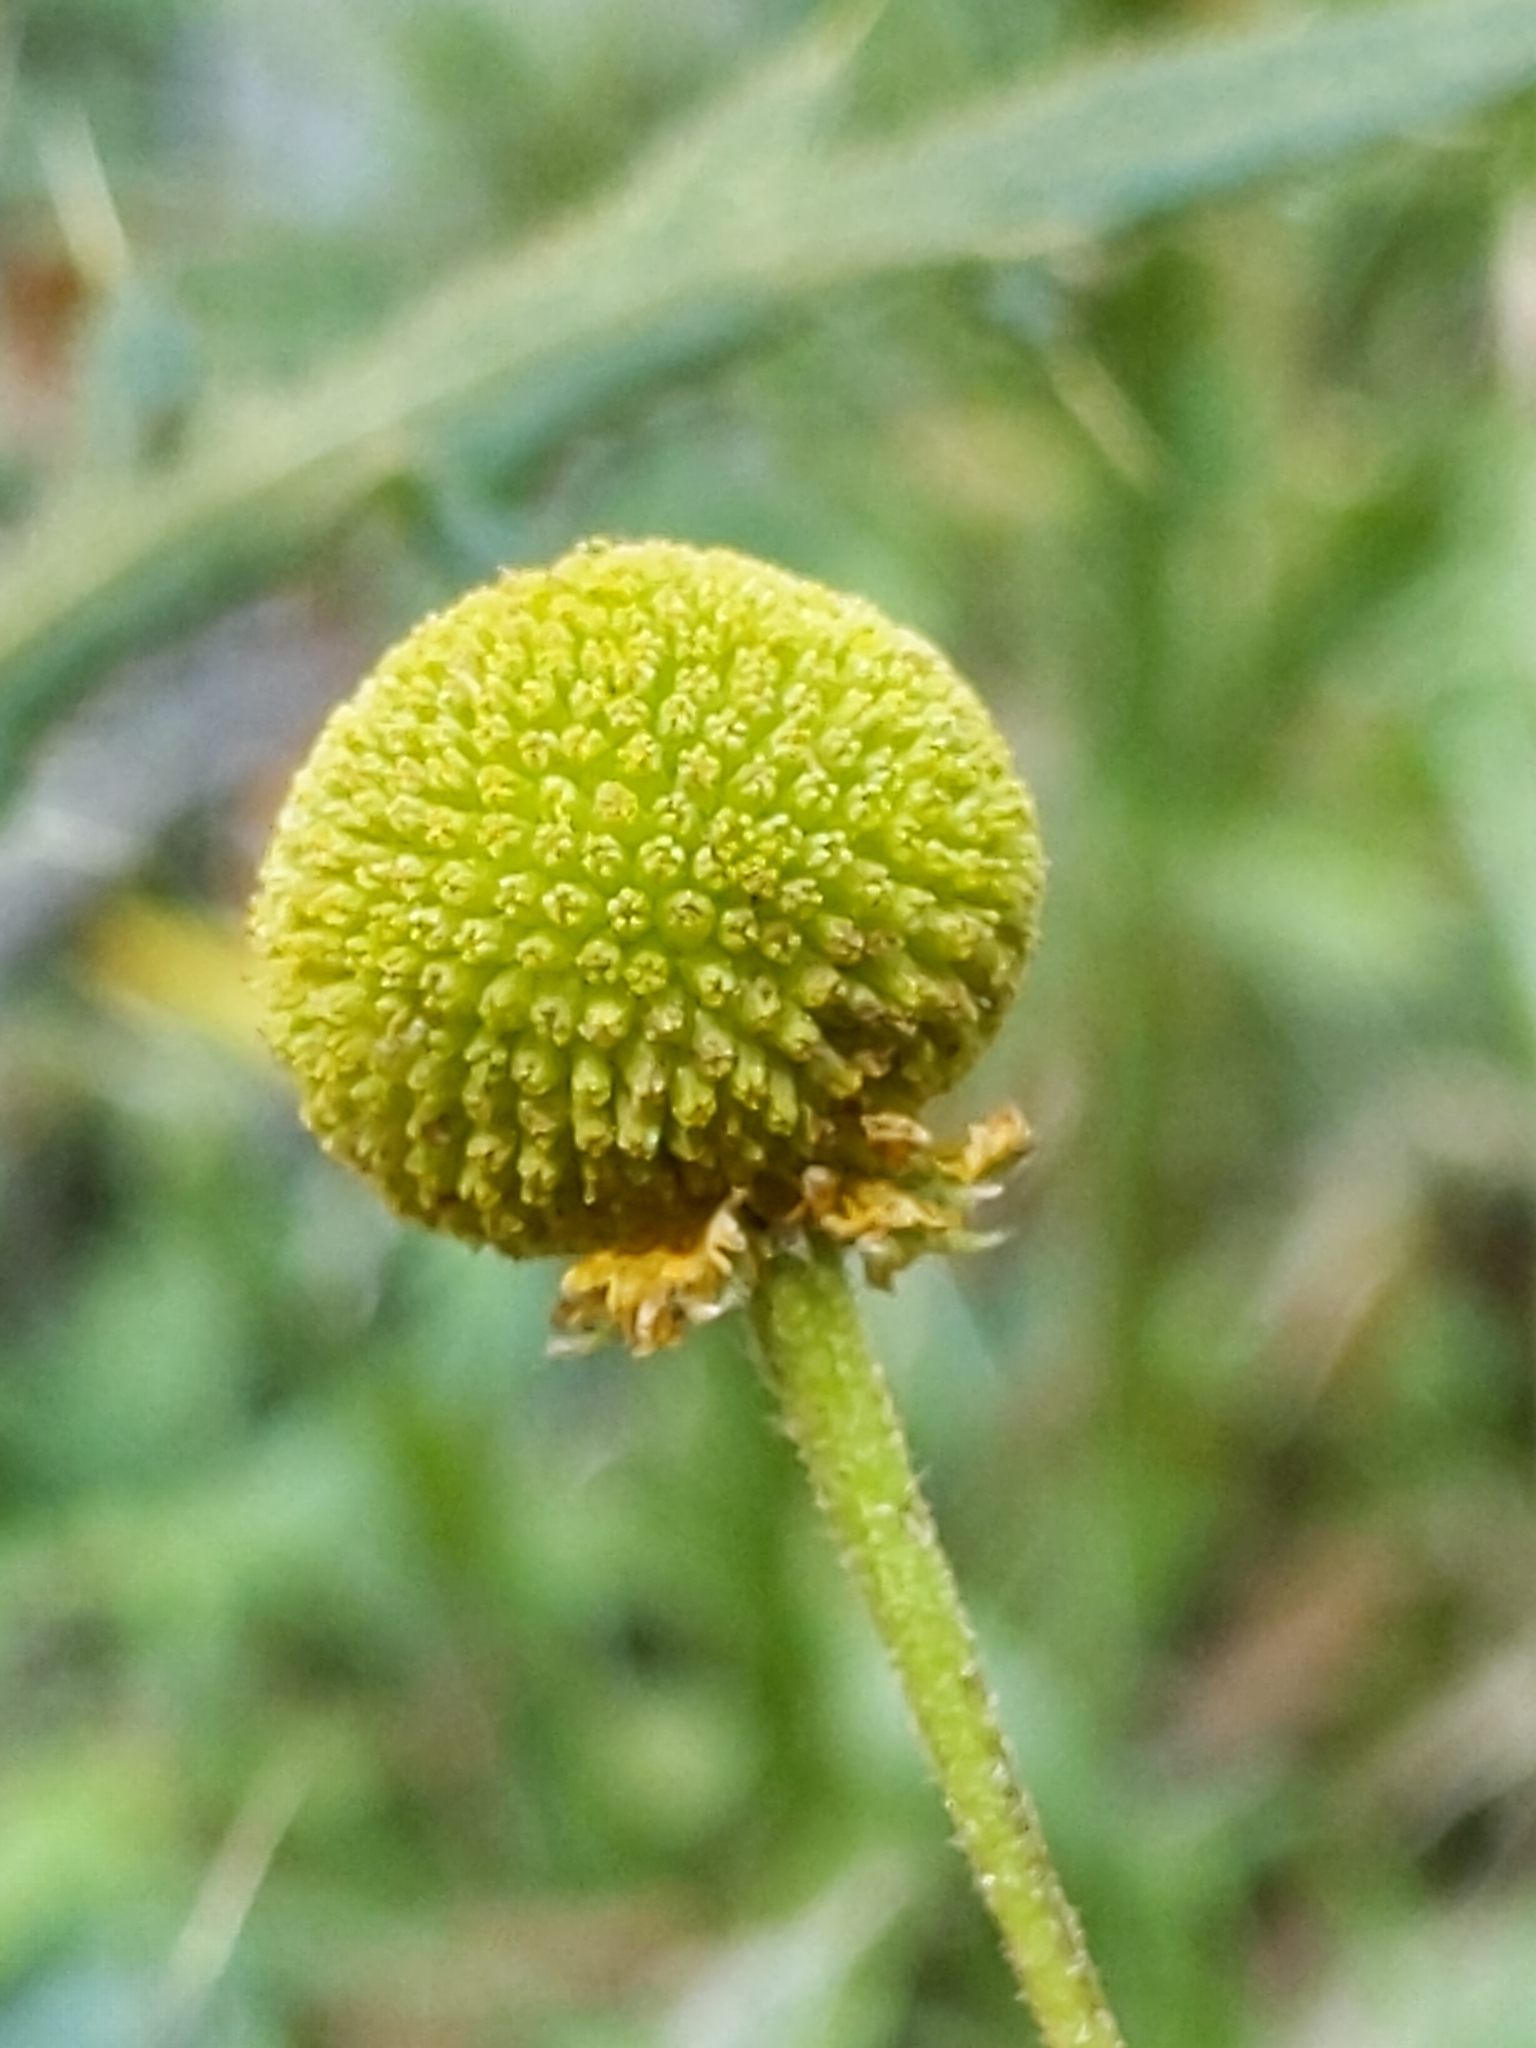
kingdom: Plantae
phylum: Tracheophyta
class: Magnoliopsida
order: Asterales
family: Asteraceae
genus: Helenium
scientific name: Helenium puberulum
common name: Sneezewort
